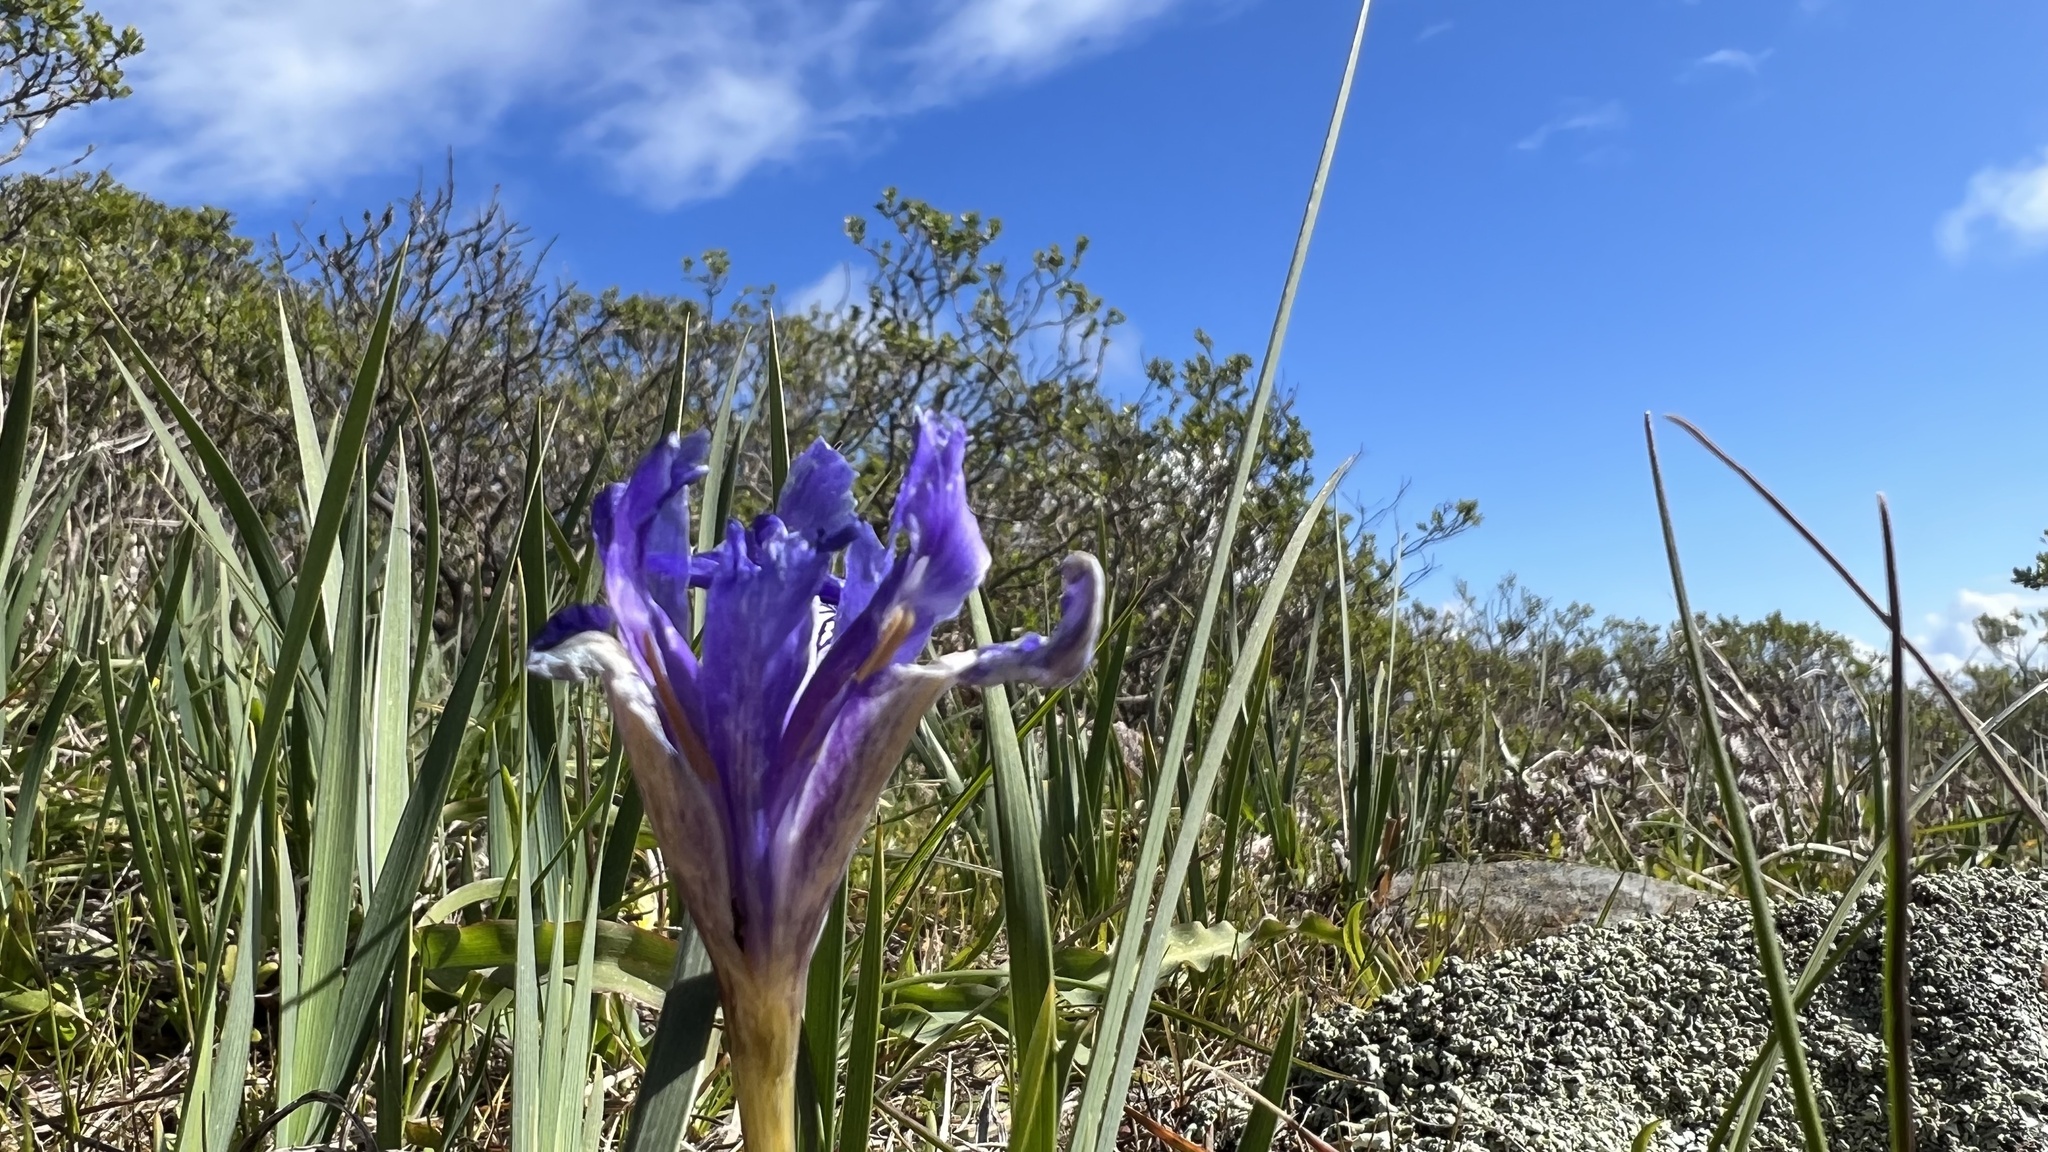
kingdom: Plantae
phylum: Tracheophyta
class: Liliopsida
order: Asparagales
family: Iridaceae
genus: Iris
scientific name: Iris macrosiphon
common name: Ground iris
